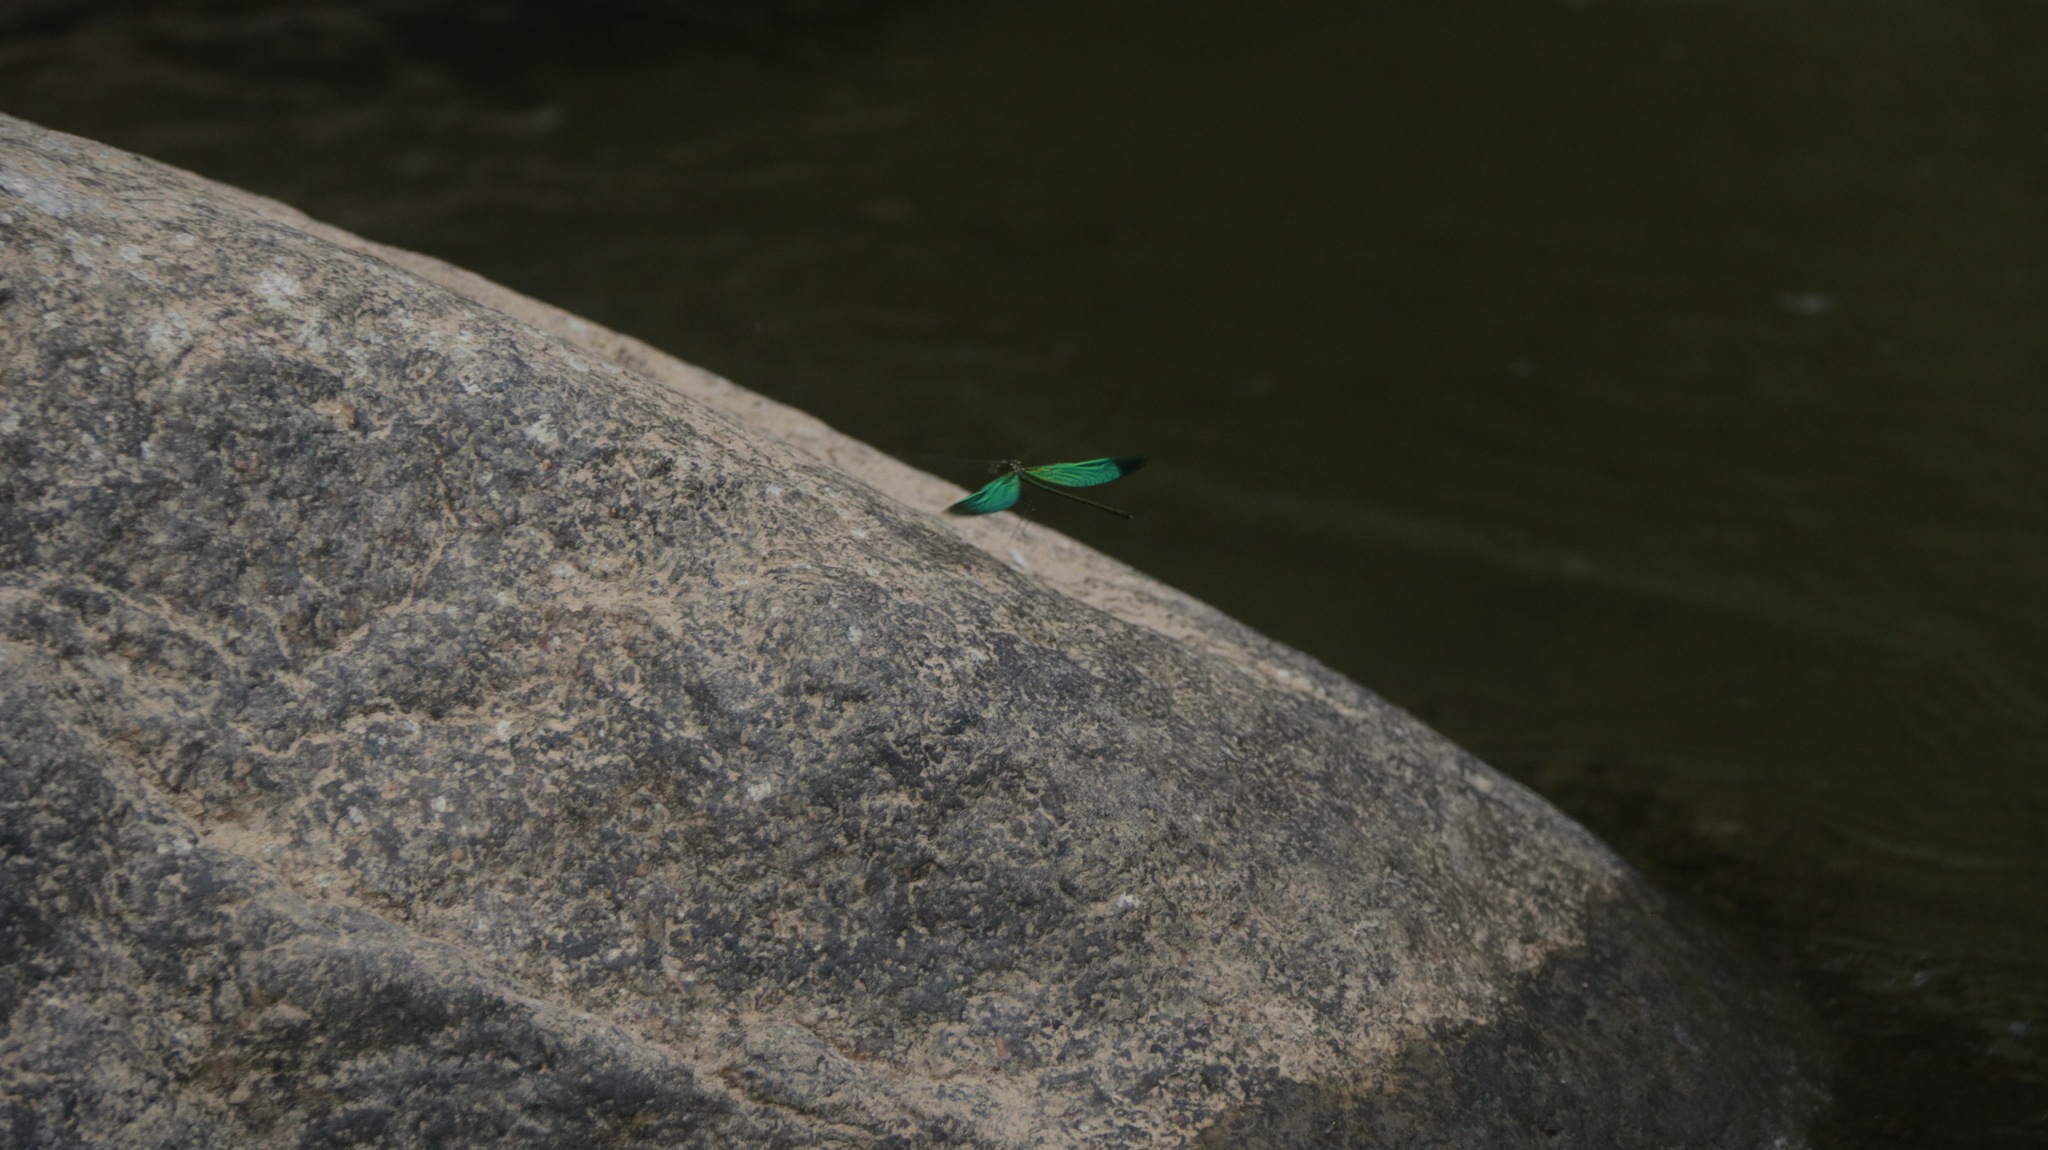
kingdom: Animalia
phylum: Arthropoda
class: Insecta
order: Odonata
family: Calopterygidae
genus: Neurobasis
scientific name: Neurobasis chinensis
